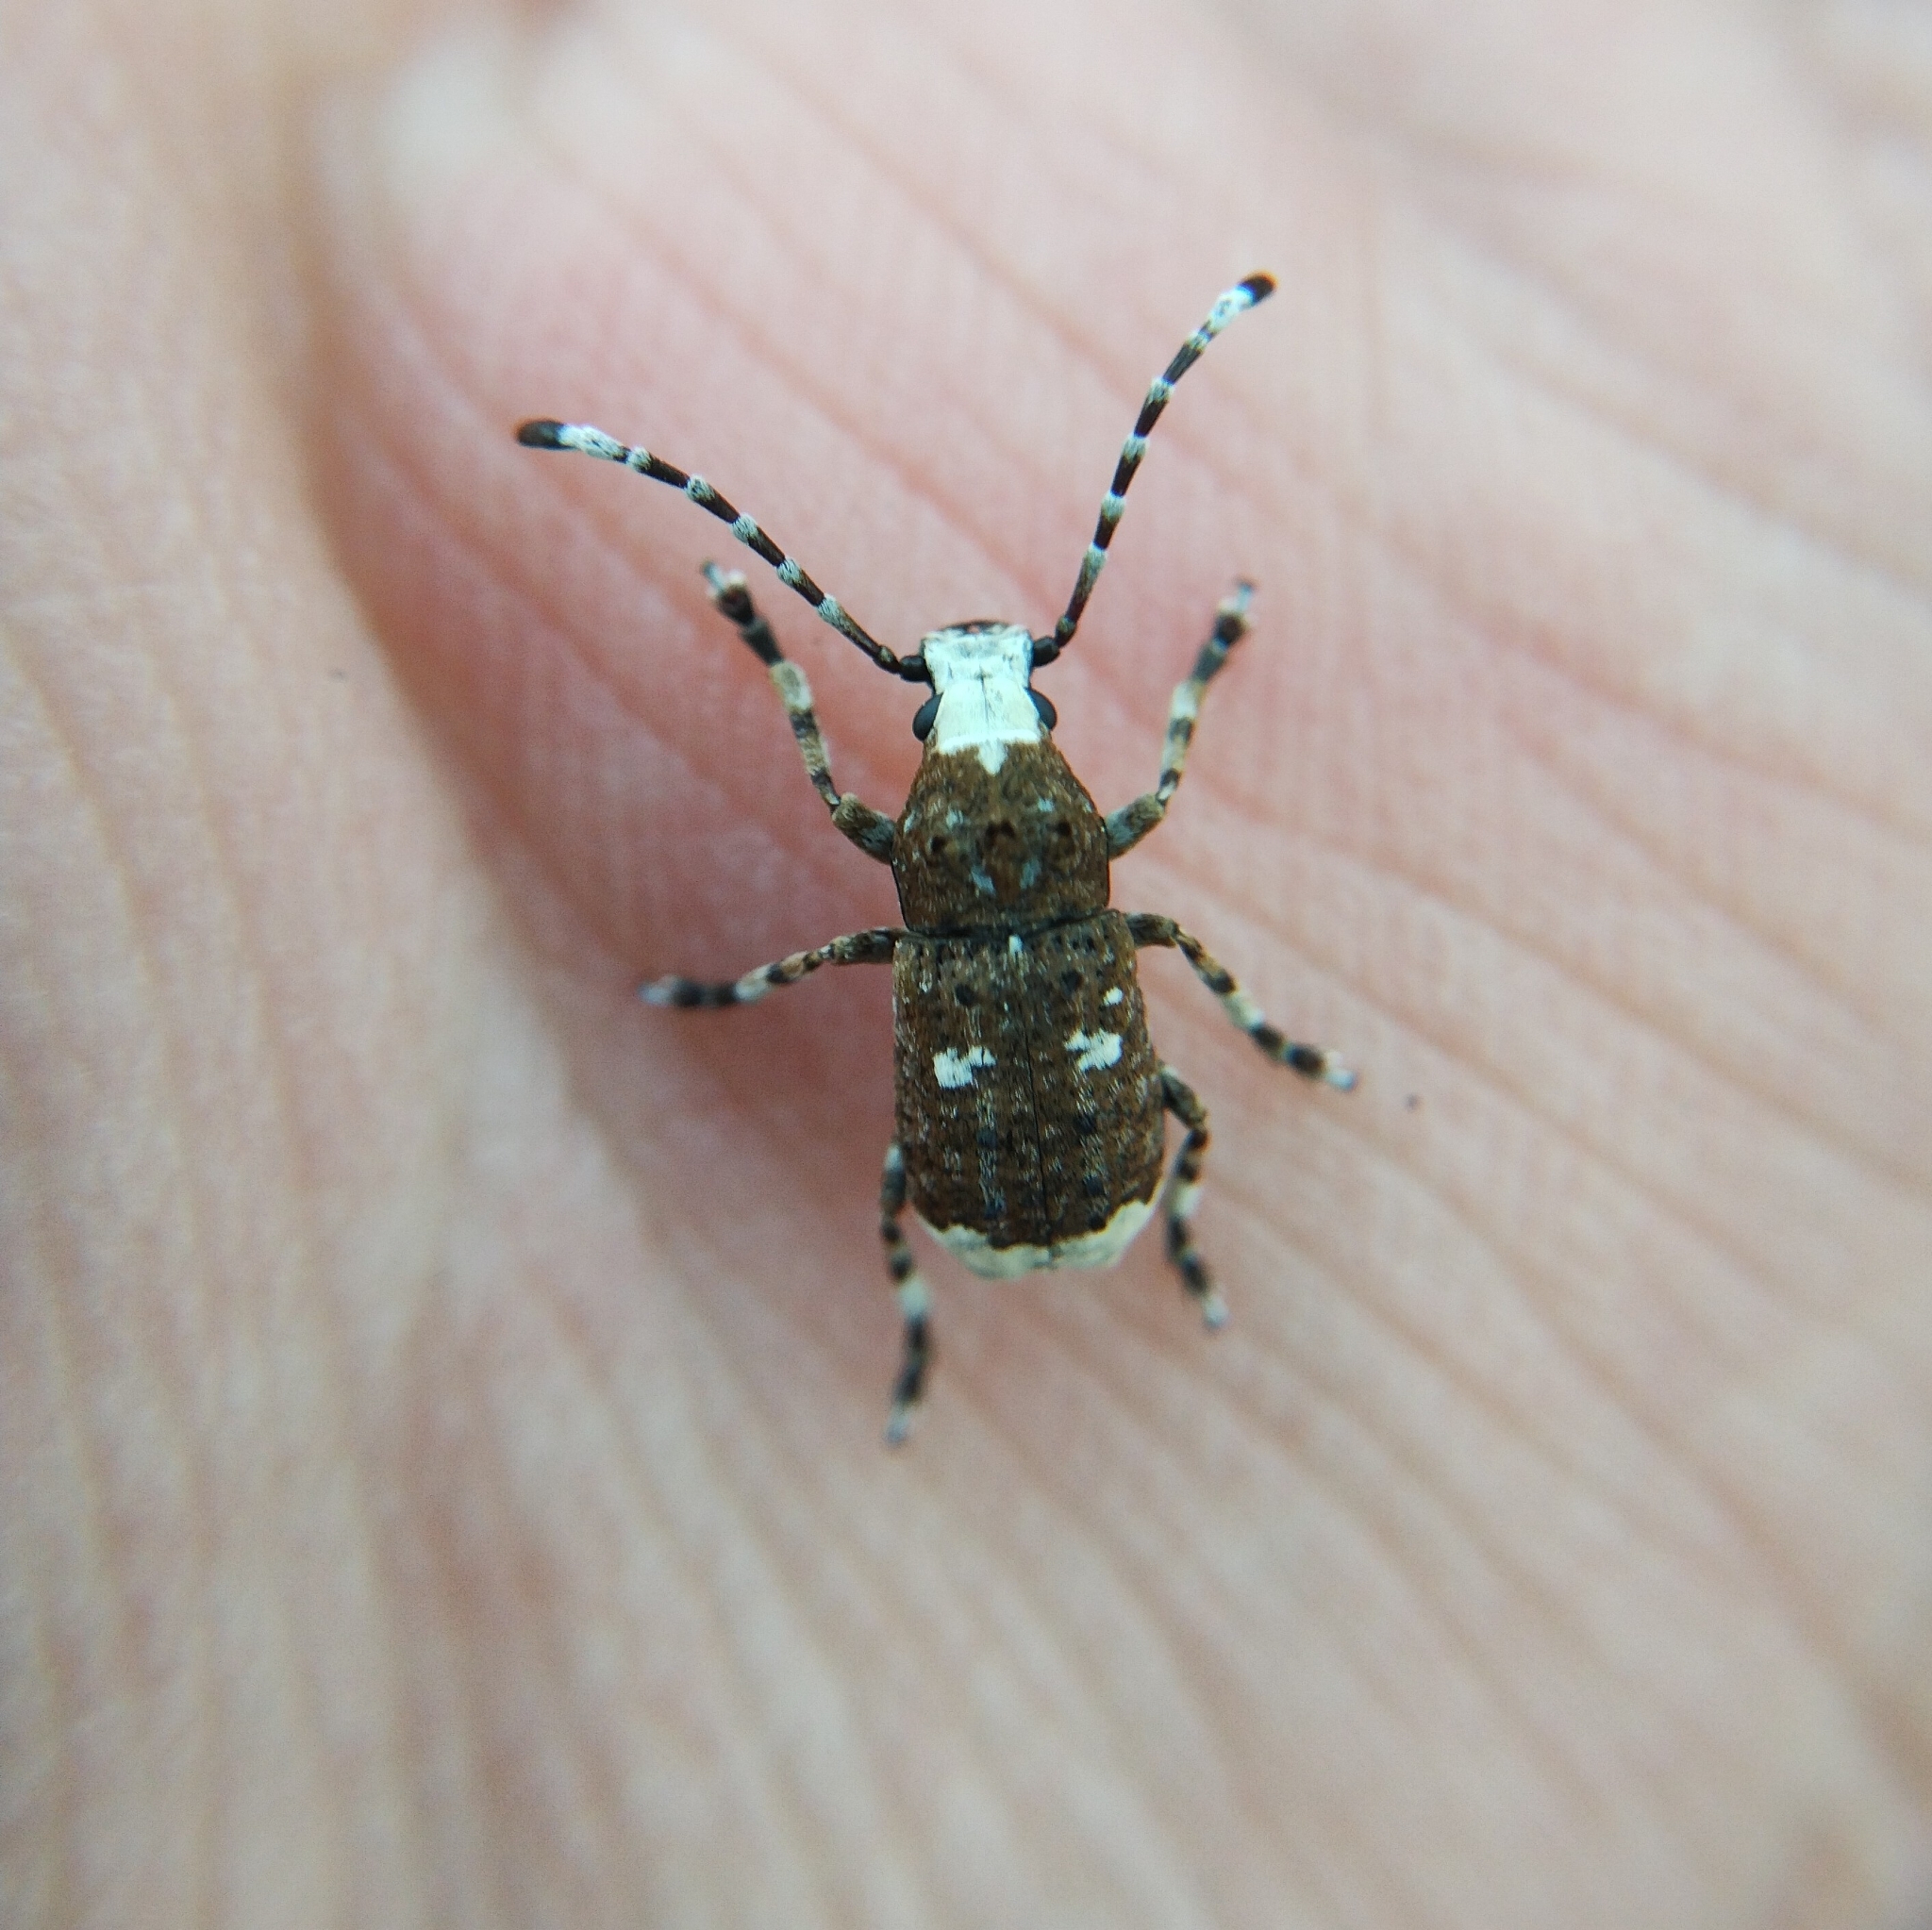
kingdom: Animalia
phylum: Arthropoda
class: Insecta
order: Coleoptera
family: Anthribidae
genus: Platystomos
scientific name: Platystomos albinus
